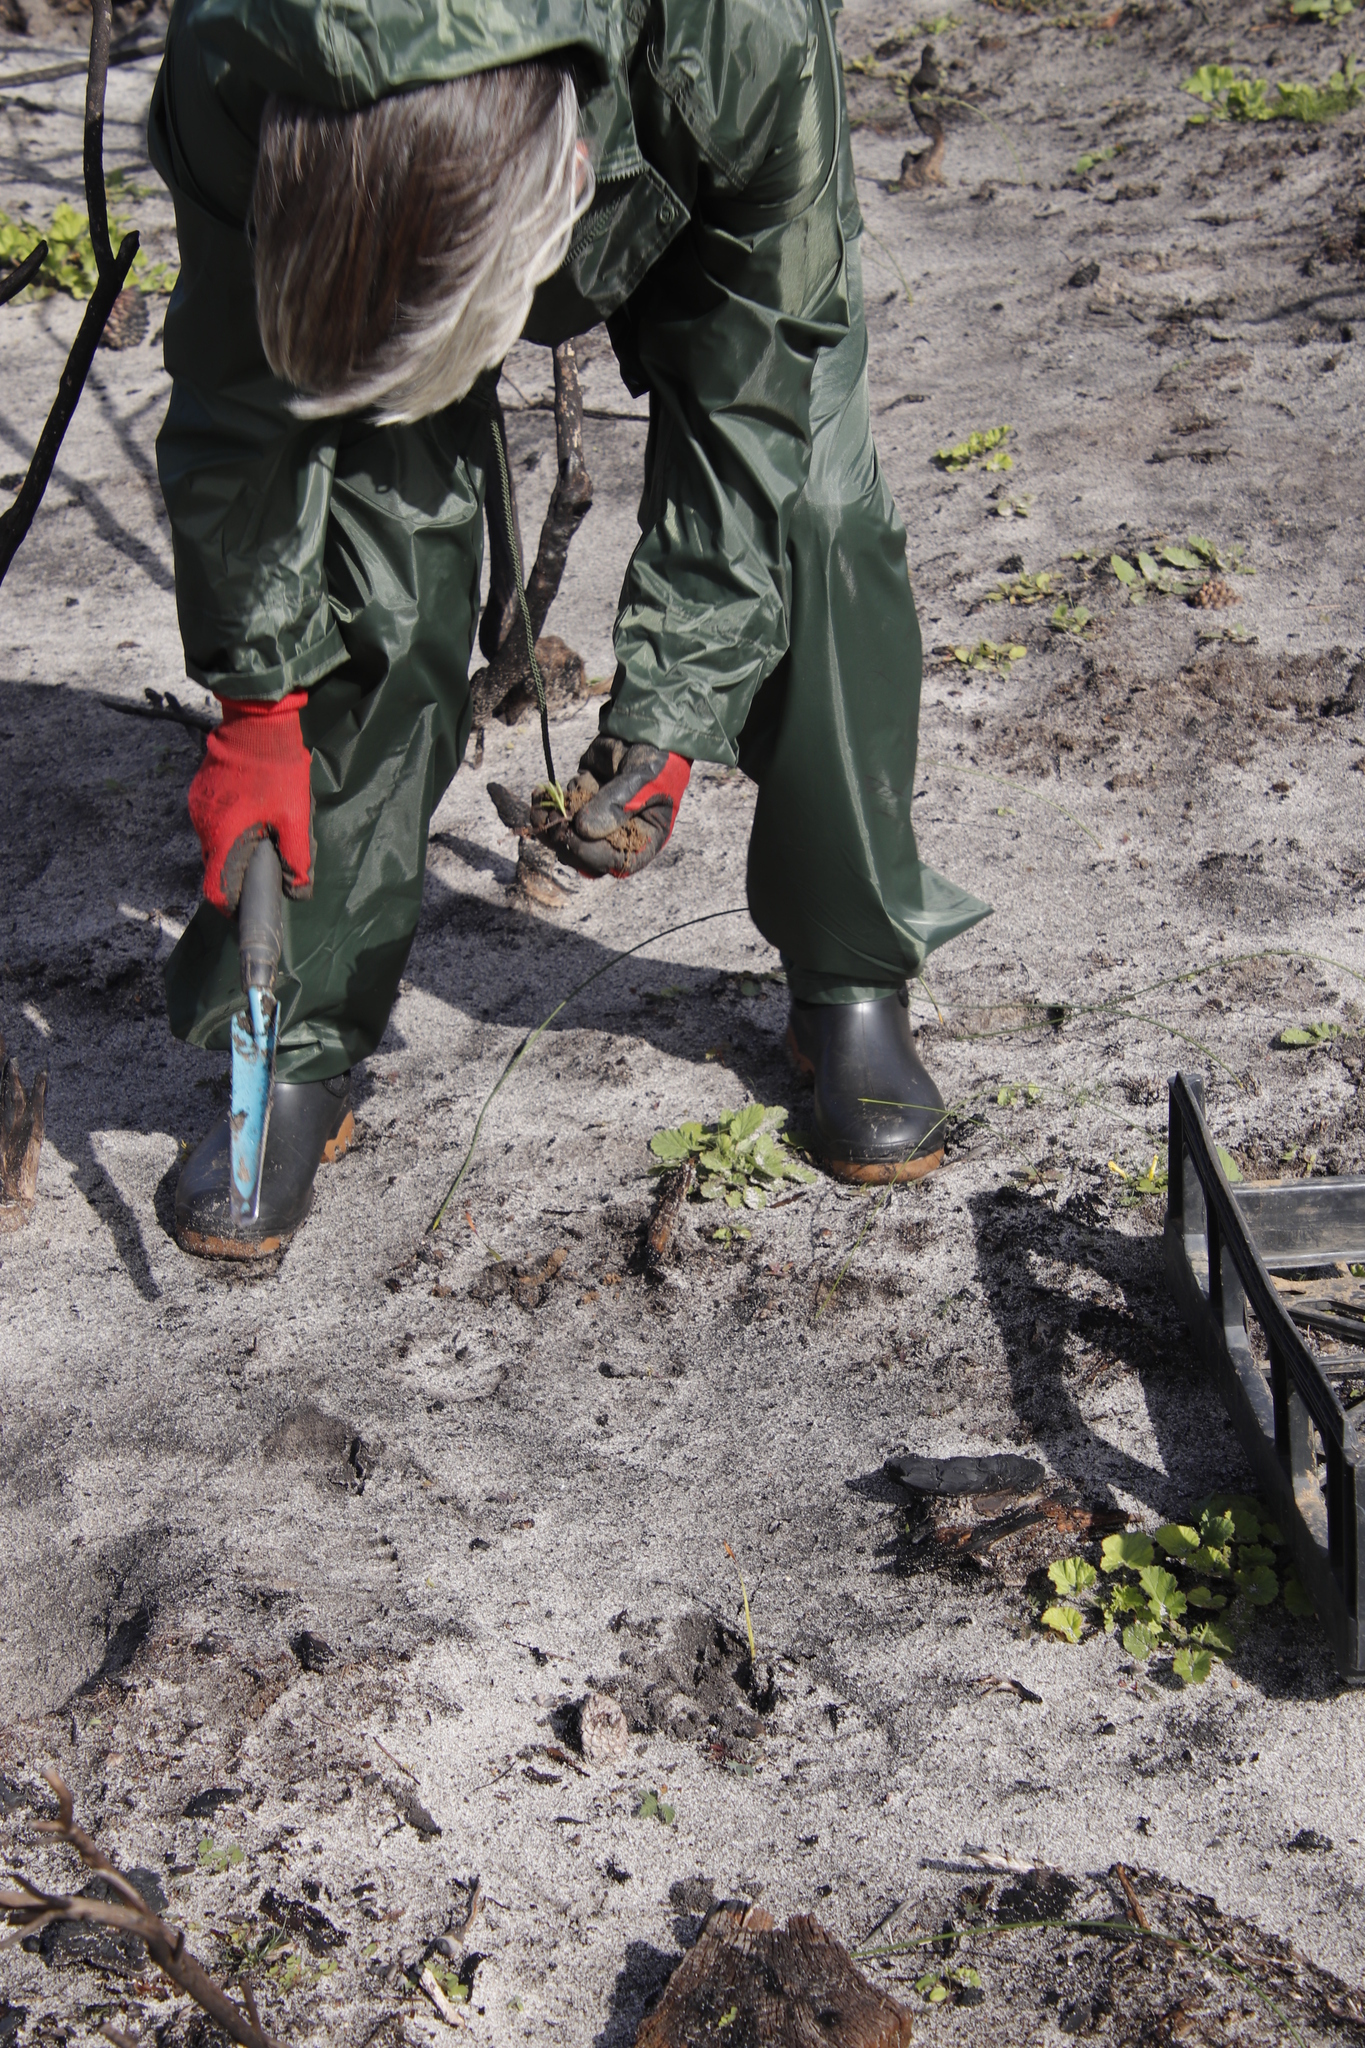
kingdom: Plantae
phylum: Tracheophyta
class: Magnoliopsida
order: Geraniales
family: Geraniaceae
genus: Pelargonium
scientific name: Pelargonium capitatum
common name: Rose scented geranium
